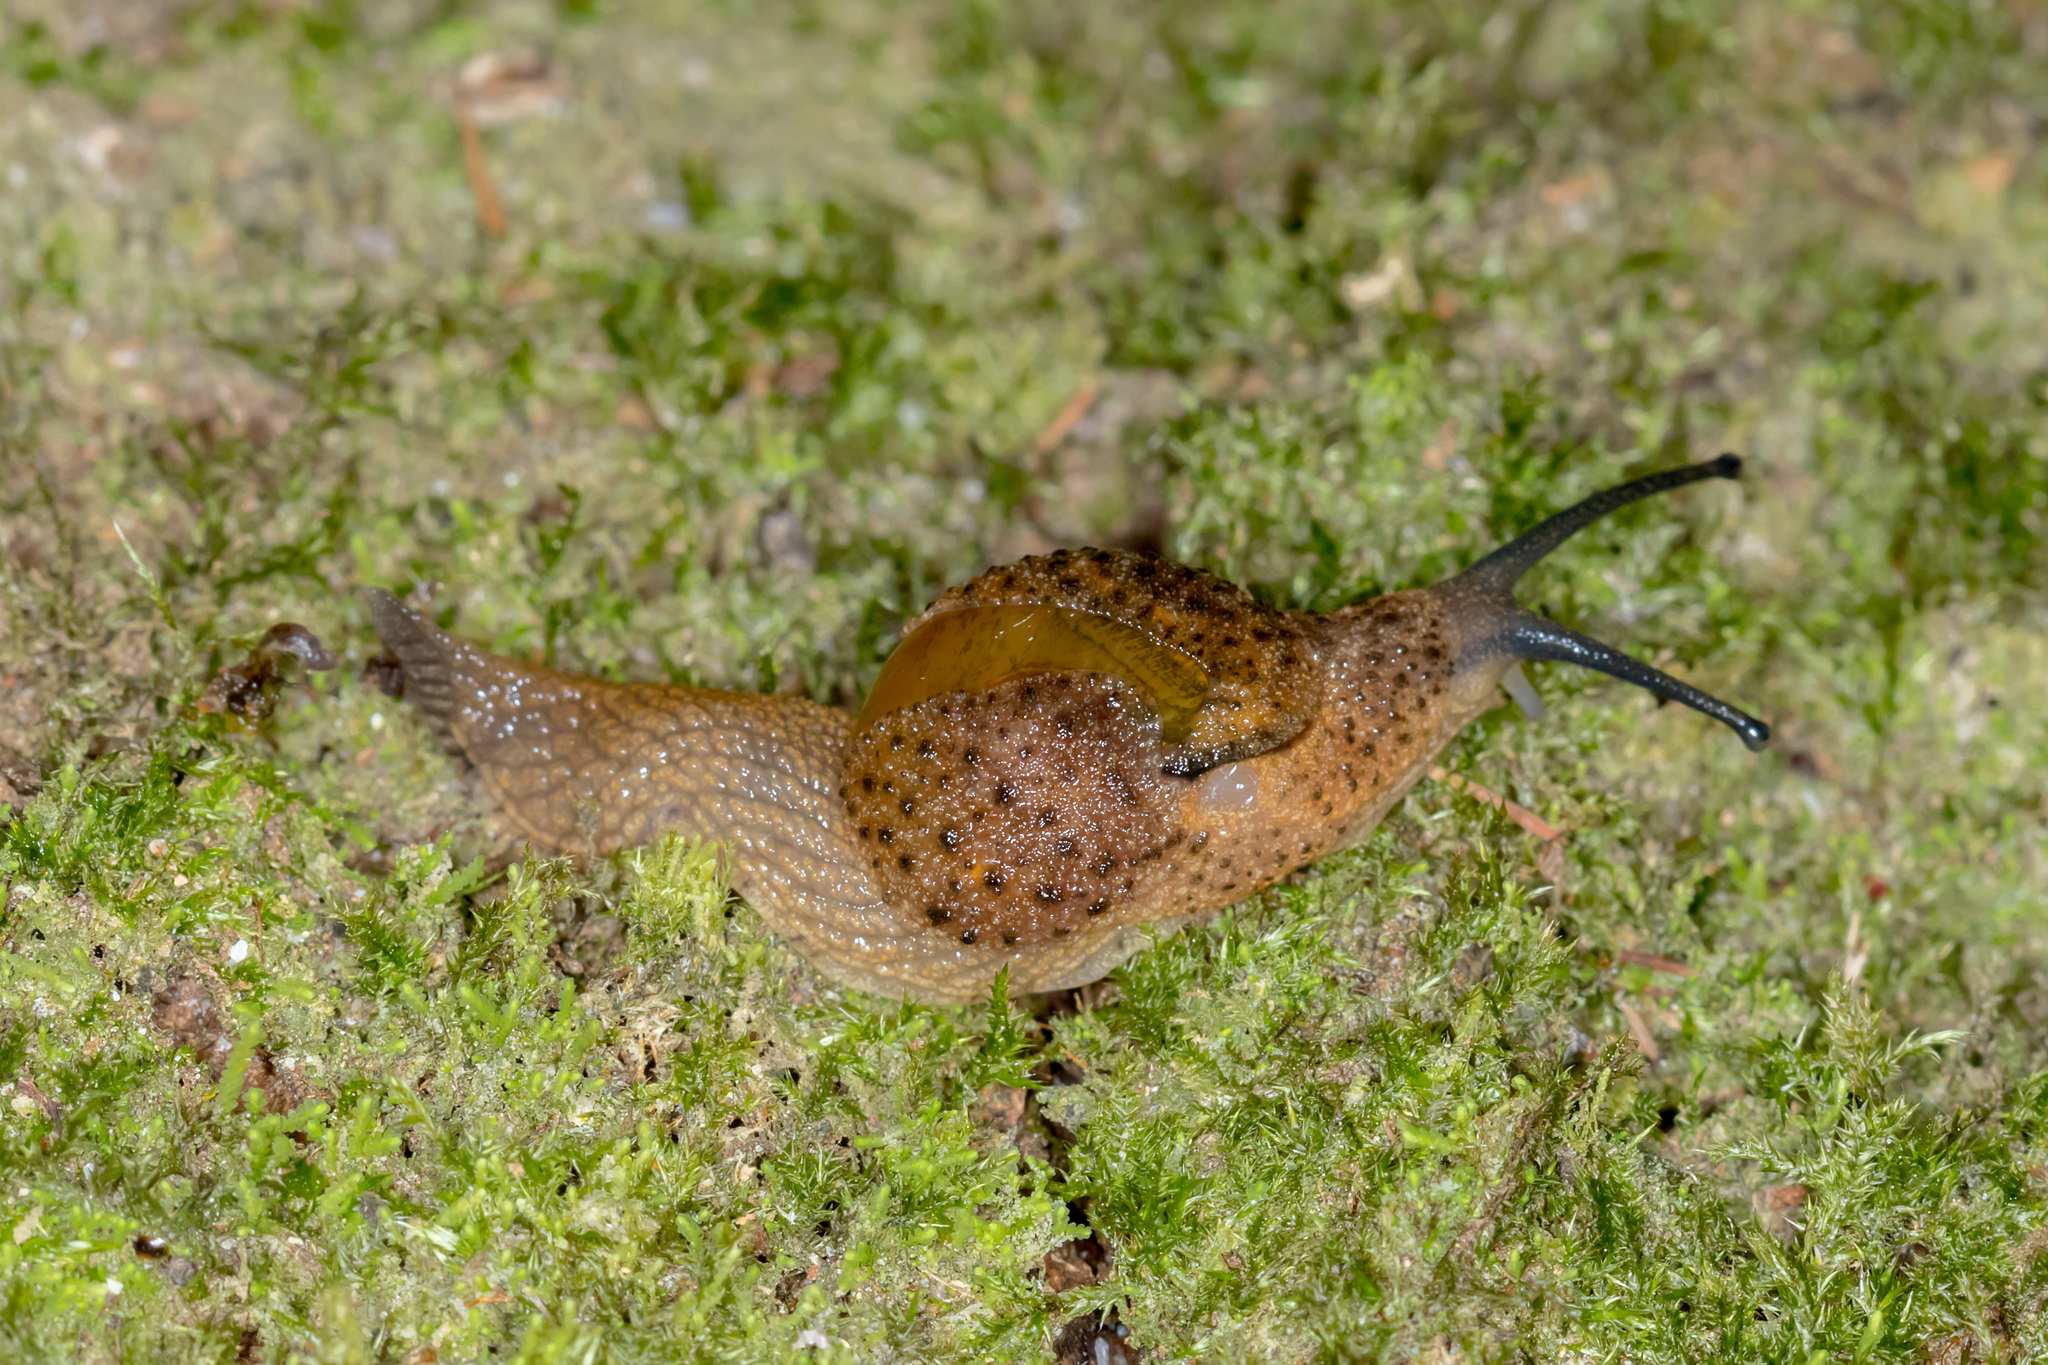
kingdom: Animalia
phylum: Mollusca
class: Gastropoda
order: Stylommatophora
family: Helicarionidae
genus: Stanisicarion
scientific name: Stanisicarion aquila
